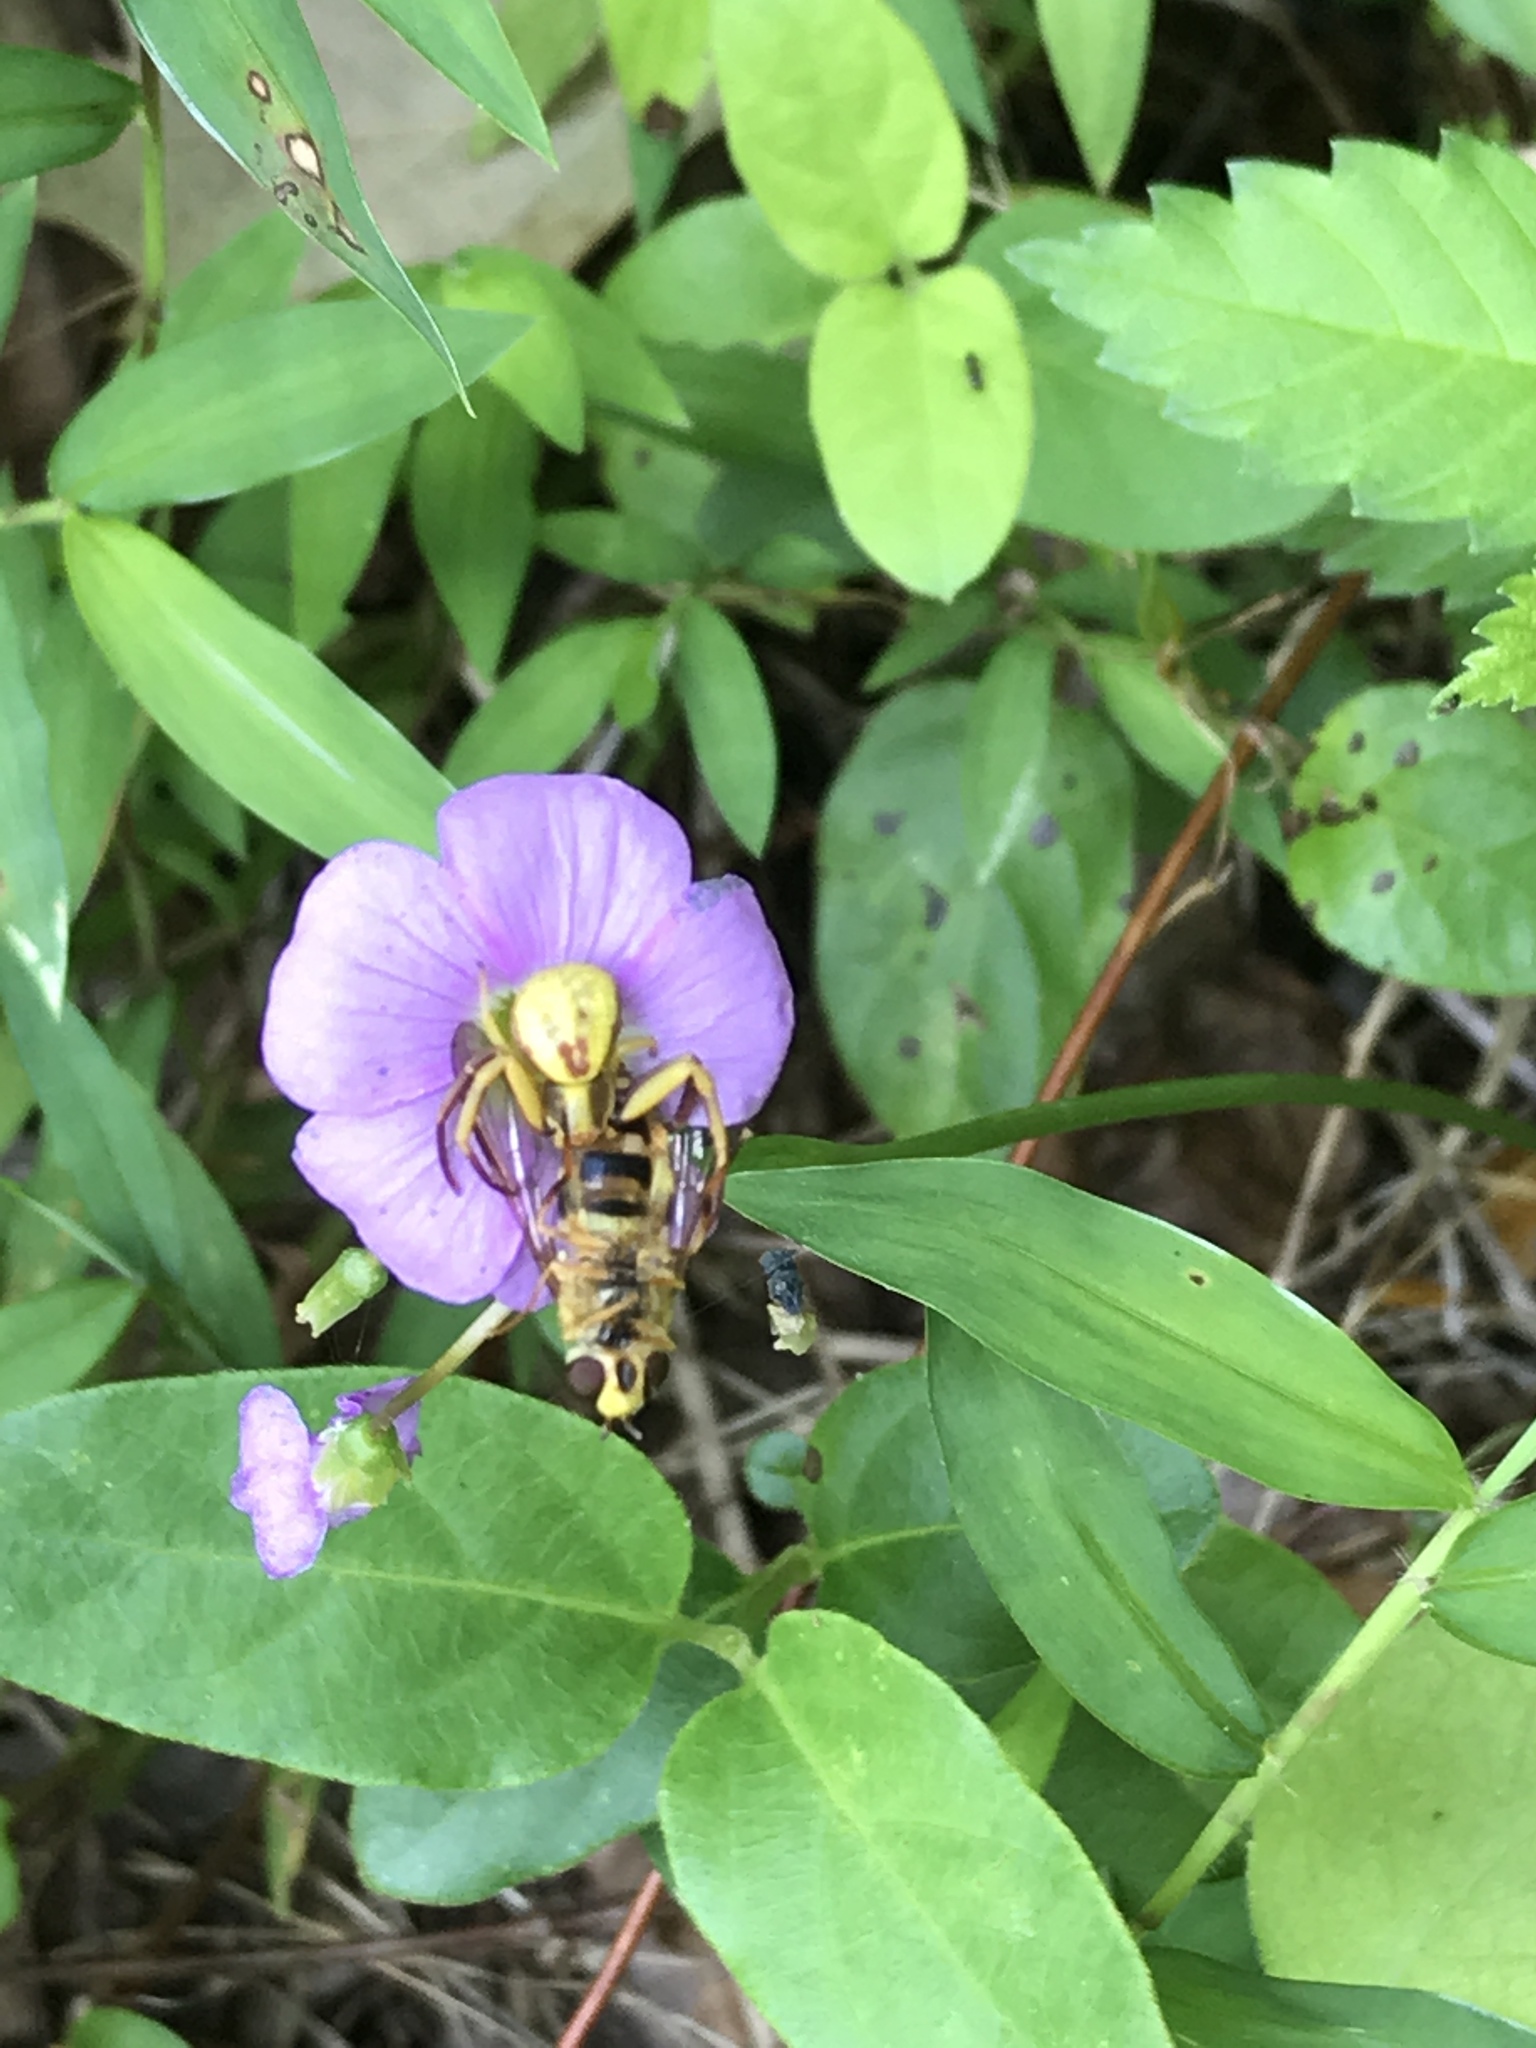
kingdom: Animalia
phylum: Arthropoda
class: Arachnida
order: Araneae
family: Thomisidae
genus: Misumenoides
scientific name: Misumenoides formosipes
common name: White-banded crab spider
